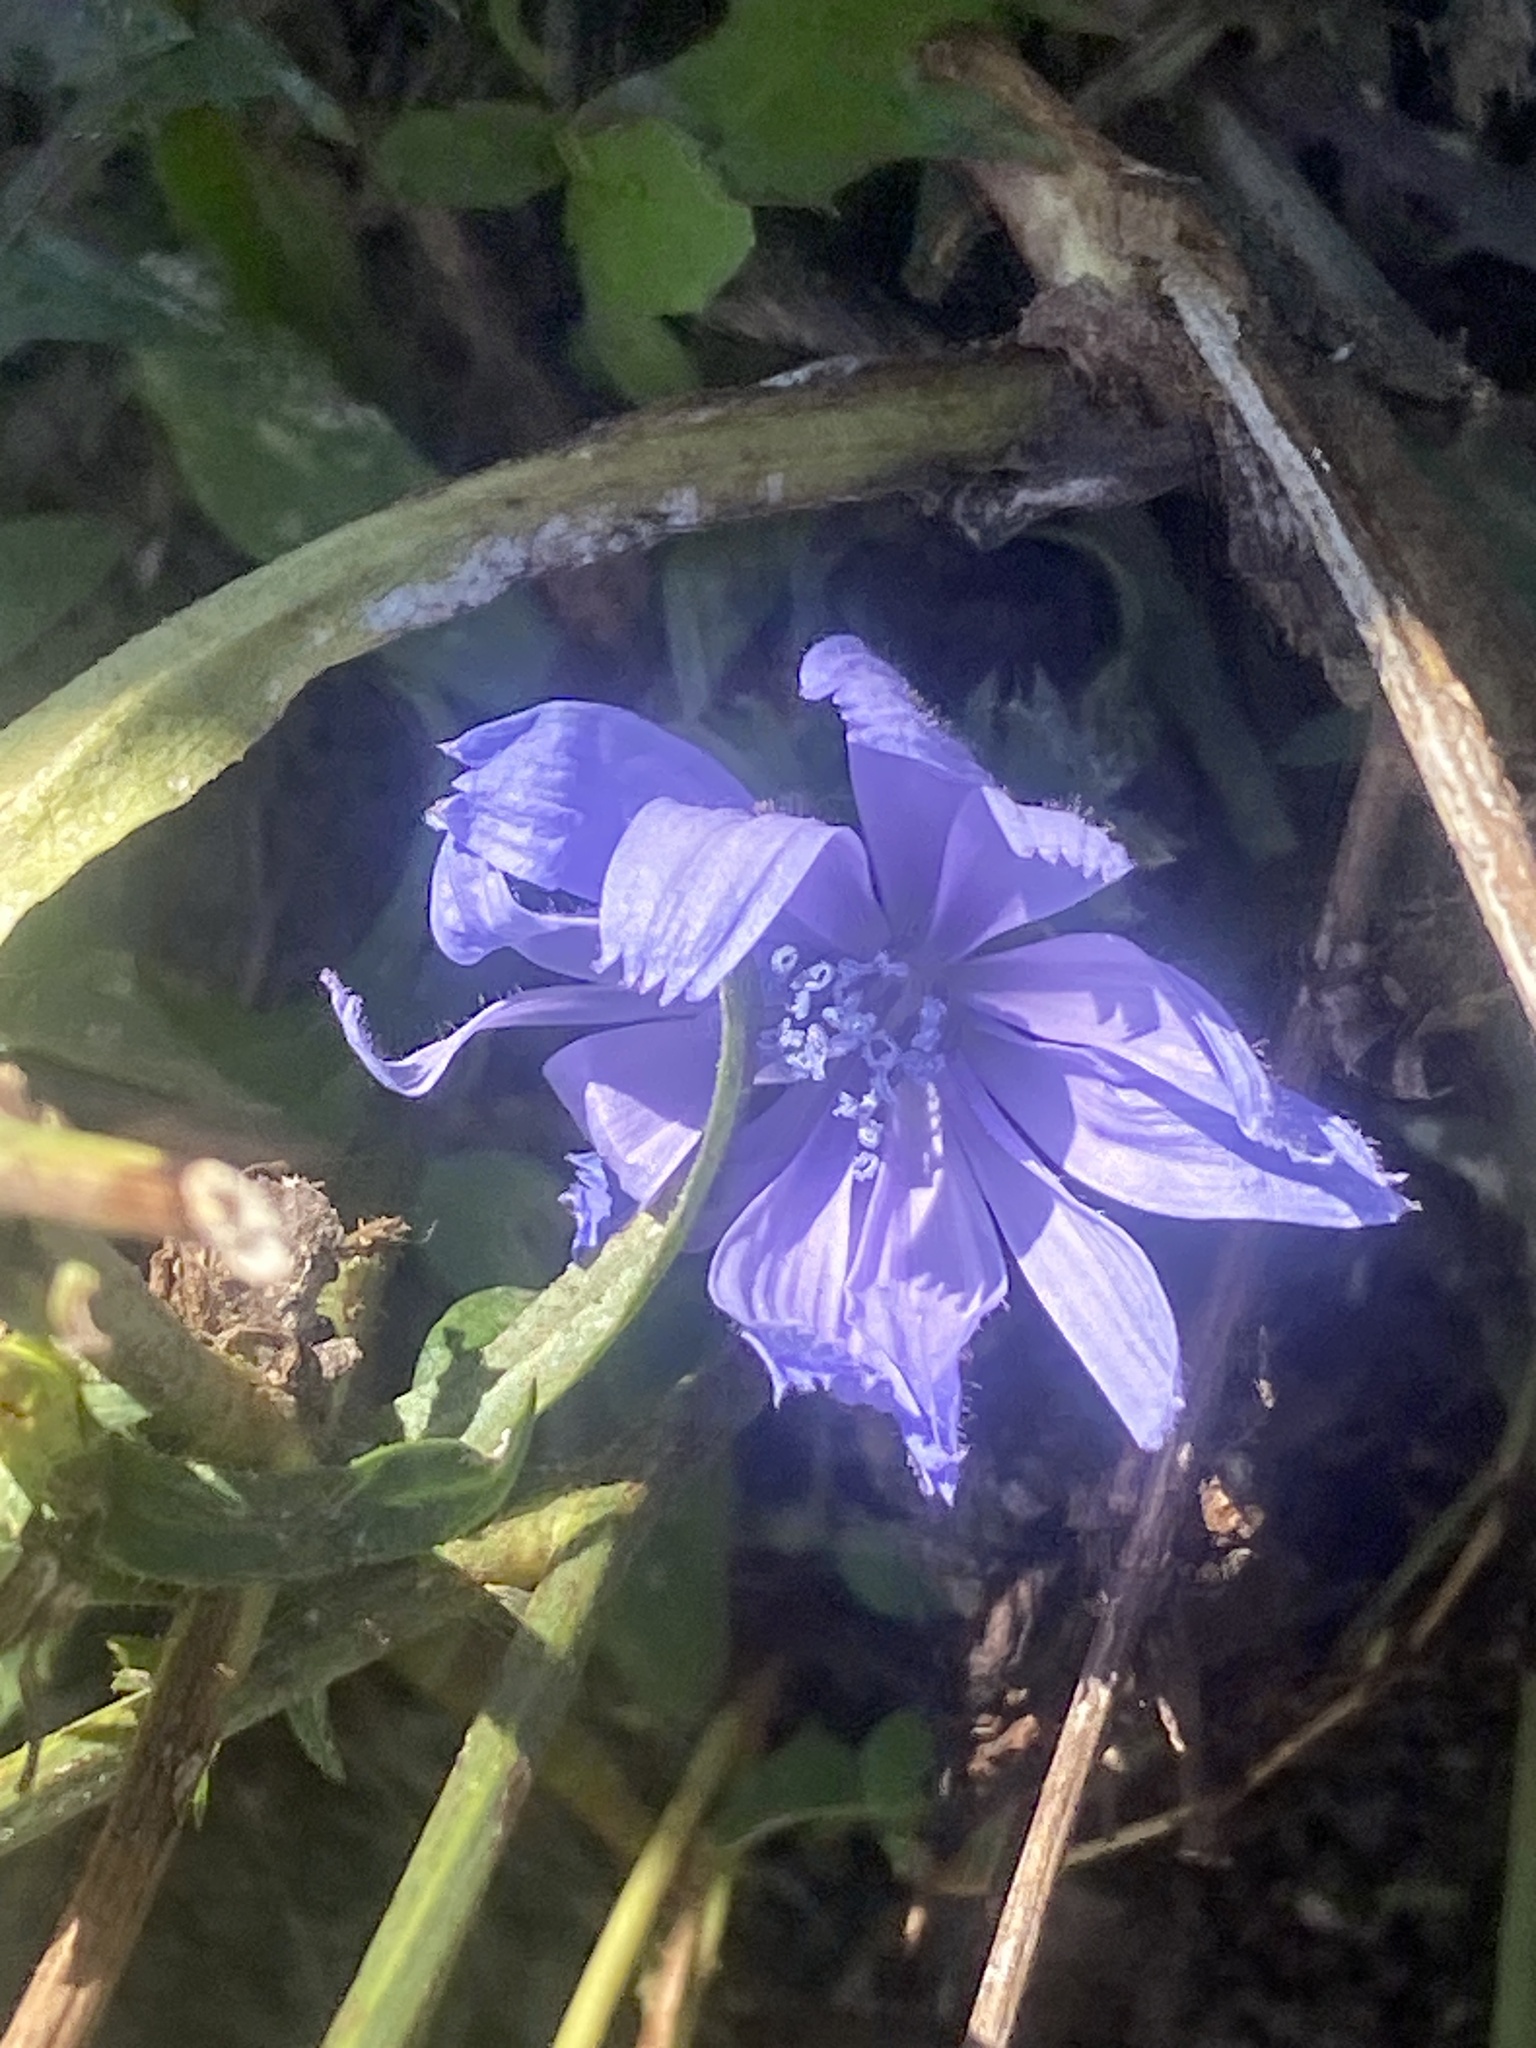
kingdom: Plantae
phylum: Tracheophyta
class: Magnoliopsida
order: Asterales
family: Asteraceae
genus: Cichorium
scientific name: Cichorium intybus
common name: Chicory
